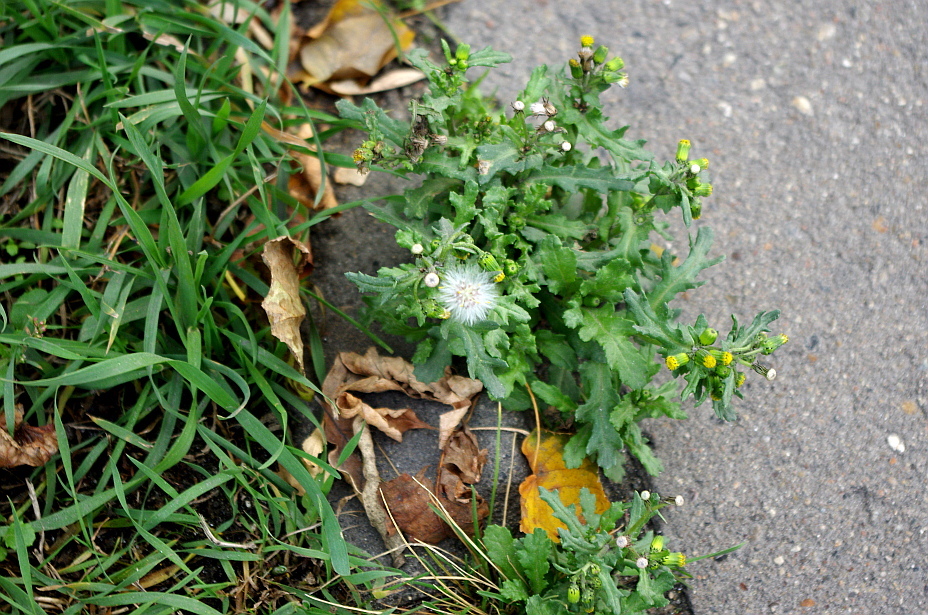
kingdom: Plantae
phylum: Tracheophyta
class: Magnoliopsida
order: Asterales
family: Asteraceae
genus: Senecio
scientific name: Senecio vulgaris
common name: Old-man-in-the-spring
